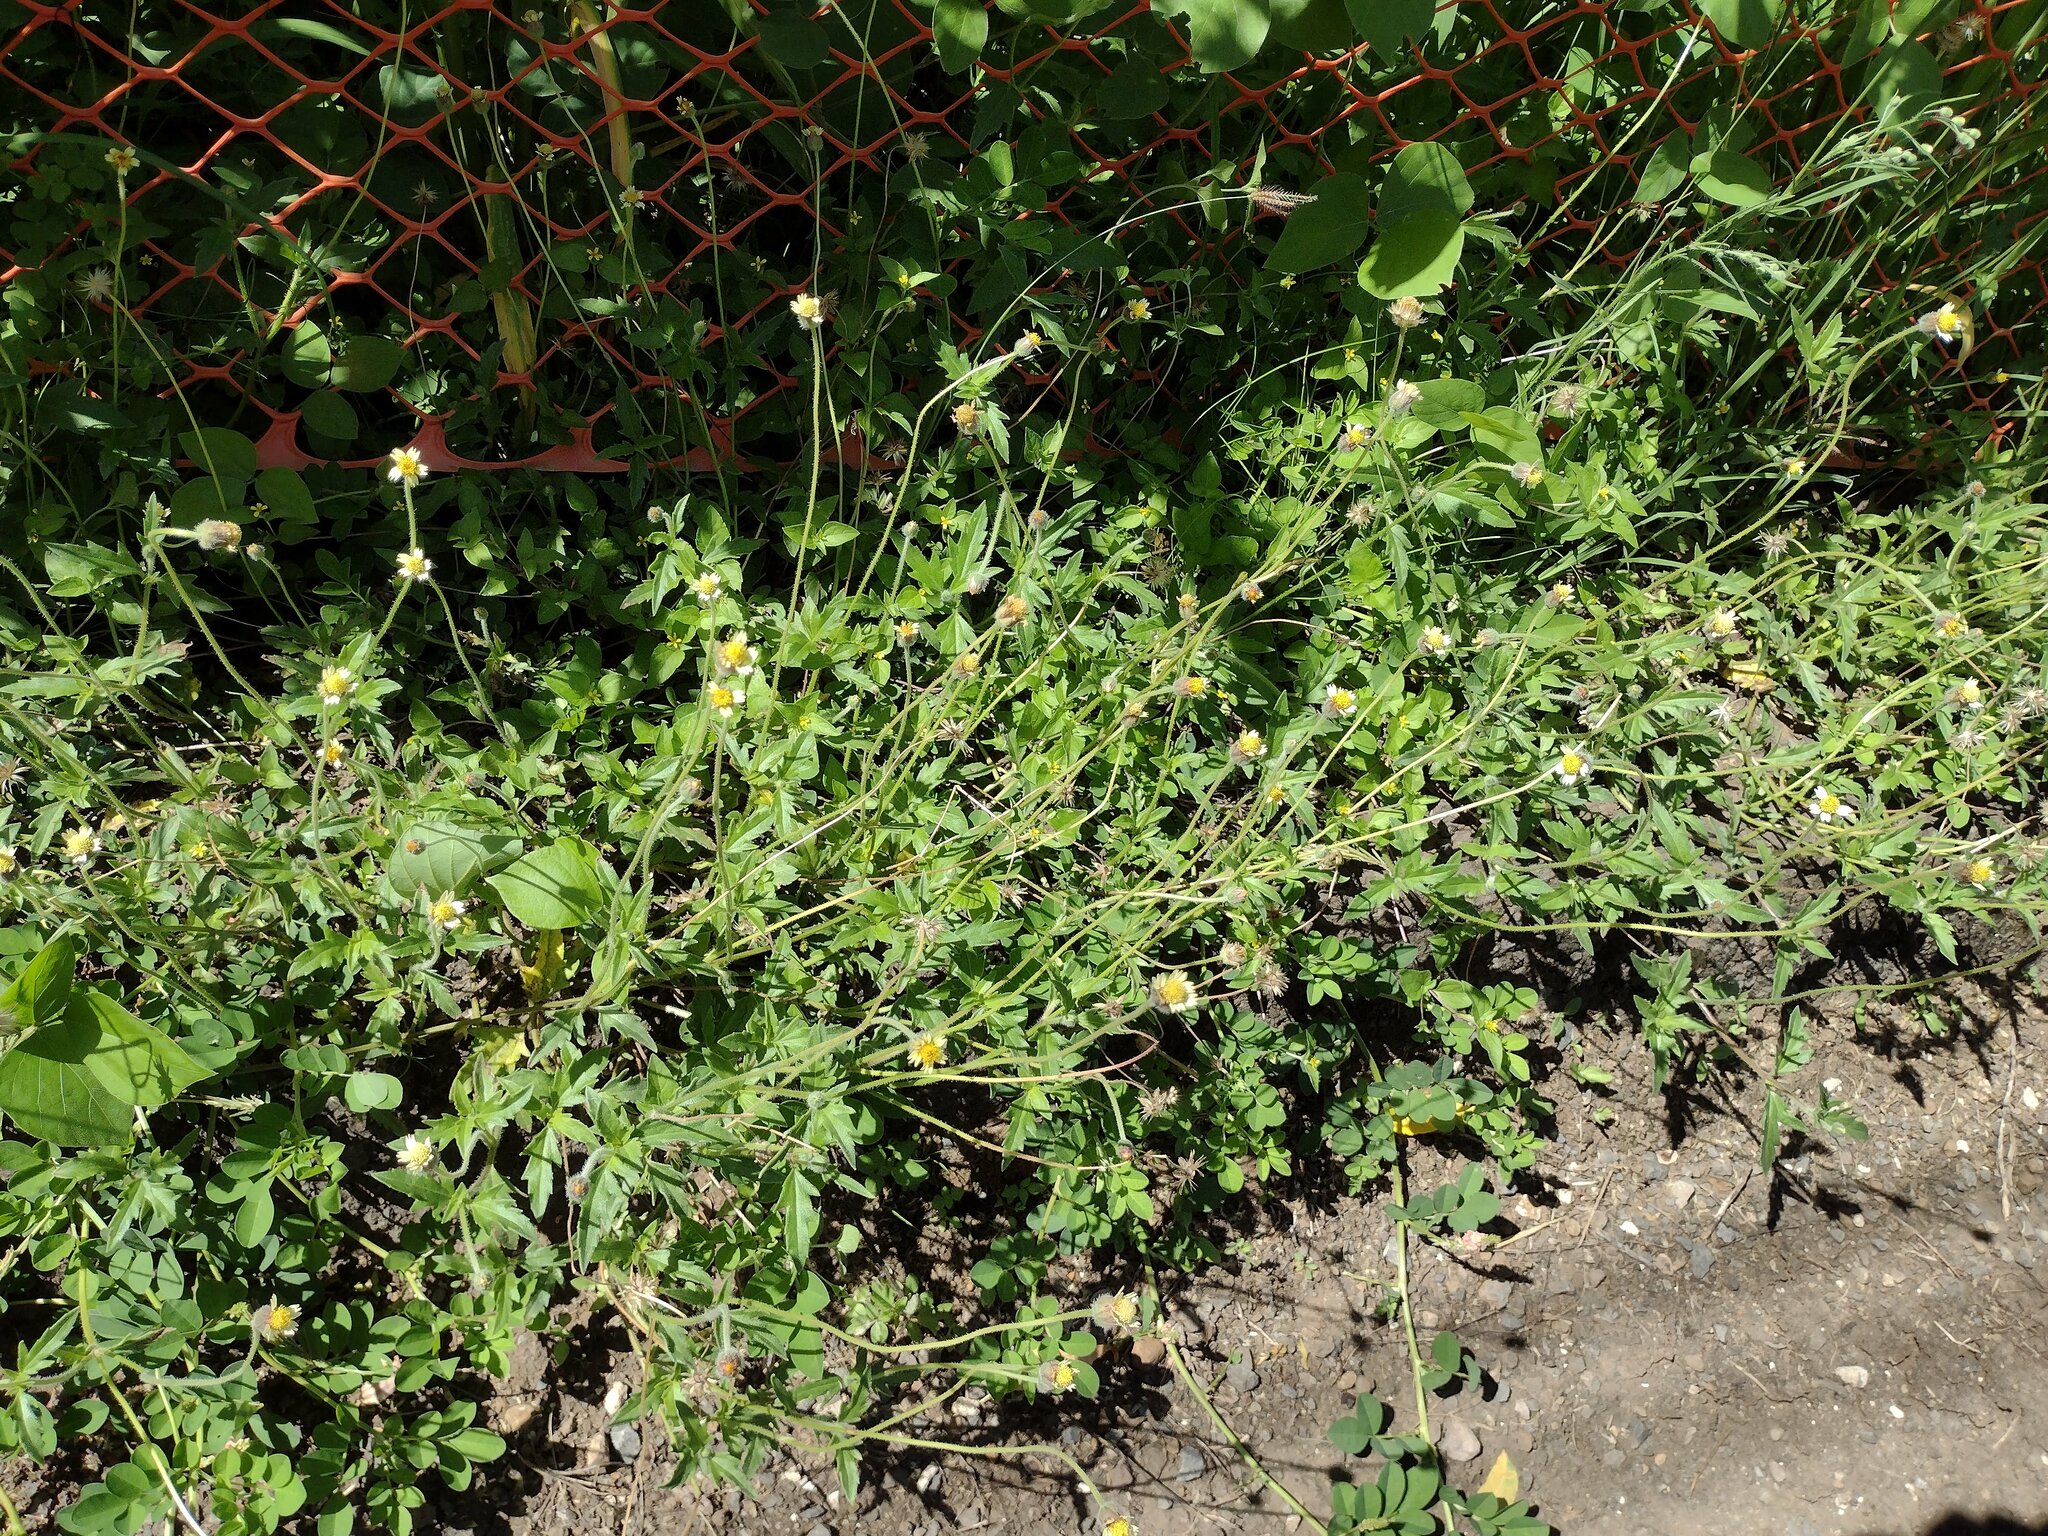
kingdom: Plantae
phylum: Tracheophyta
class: Magnoliopsida
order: Asterales
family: Asteraceae
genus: Tridax
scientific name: Tridax procumbens
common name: Coatbuttons
